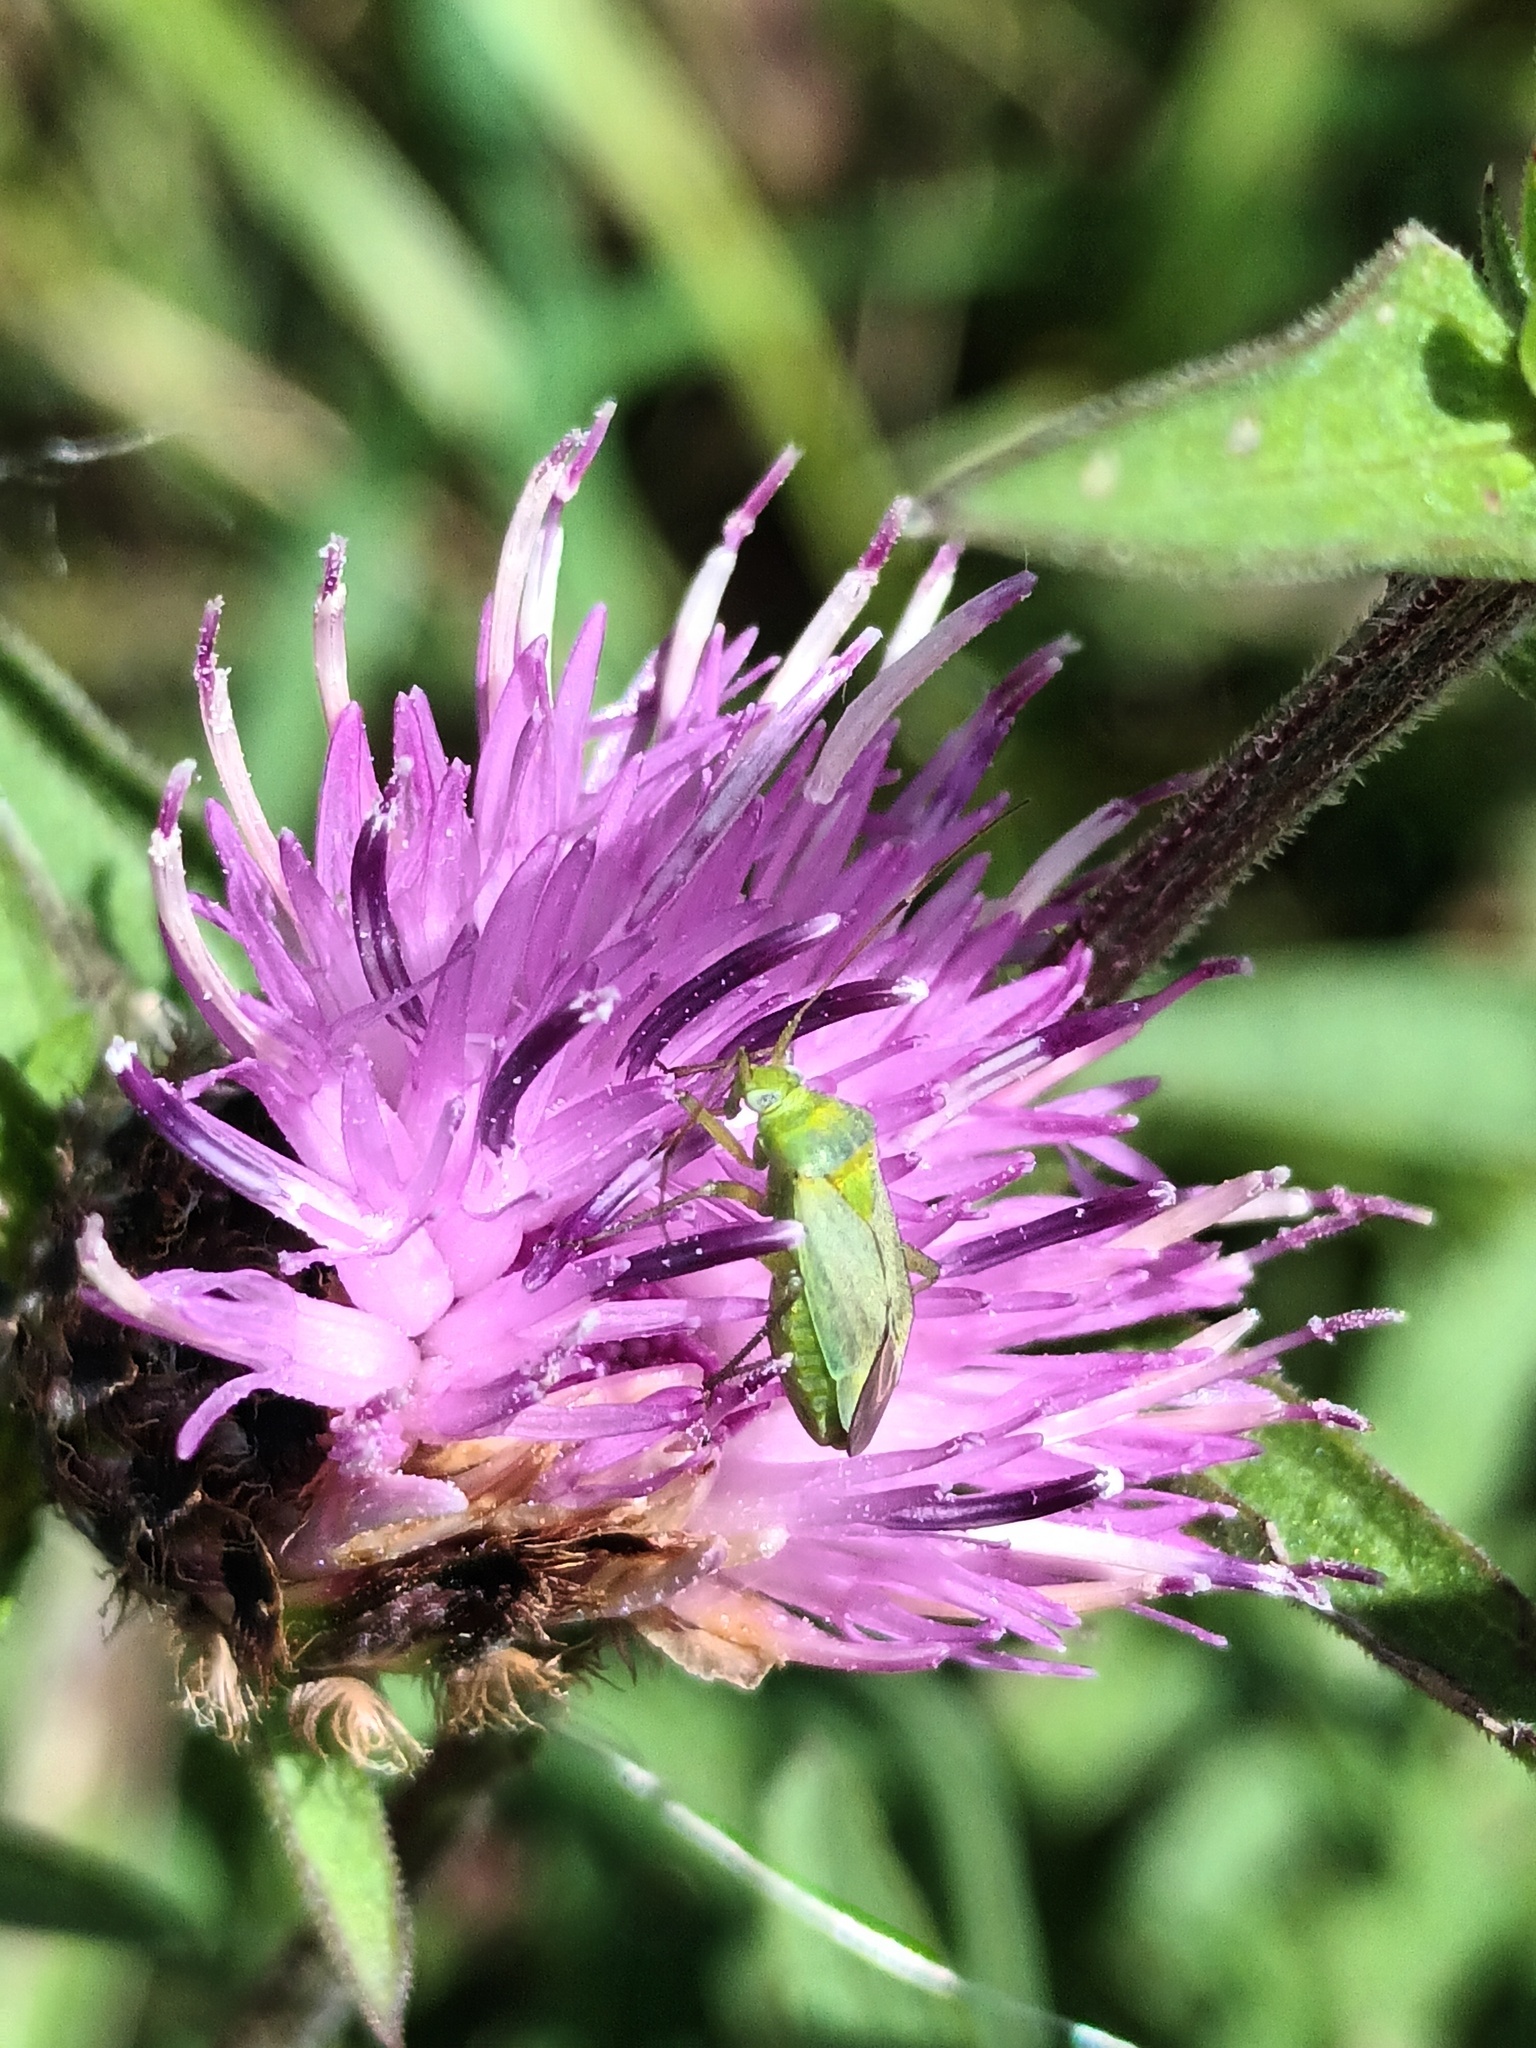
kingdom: Animalia
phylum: Arthropoda
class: Insecta
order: Hemiptera
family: Miridae
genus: Closterotomus
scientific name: Closterotomus norvegicus
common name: Plant bug
